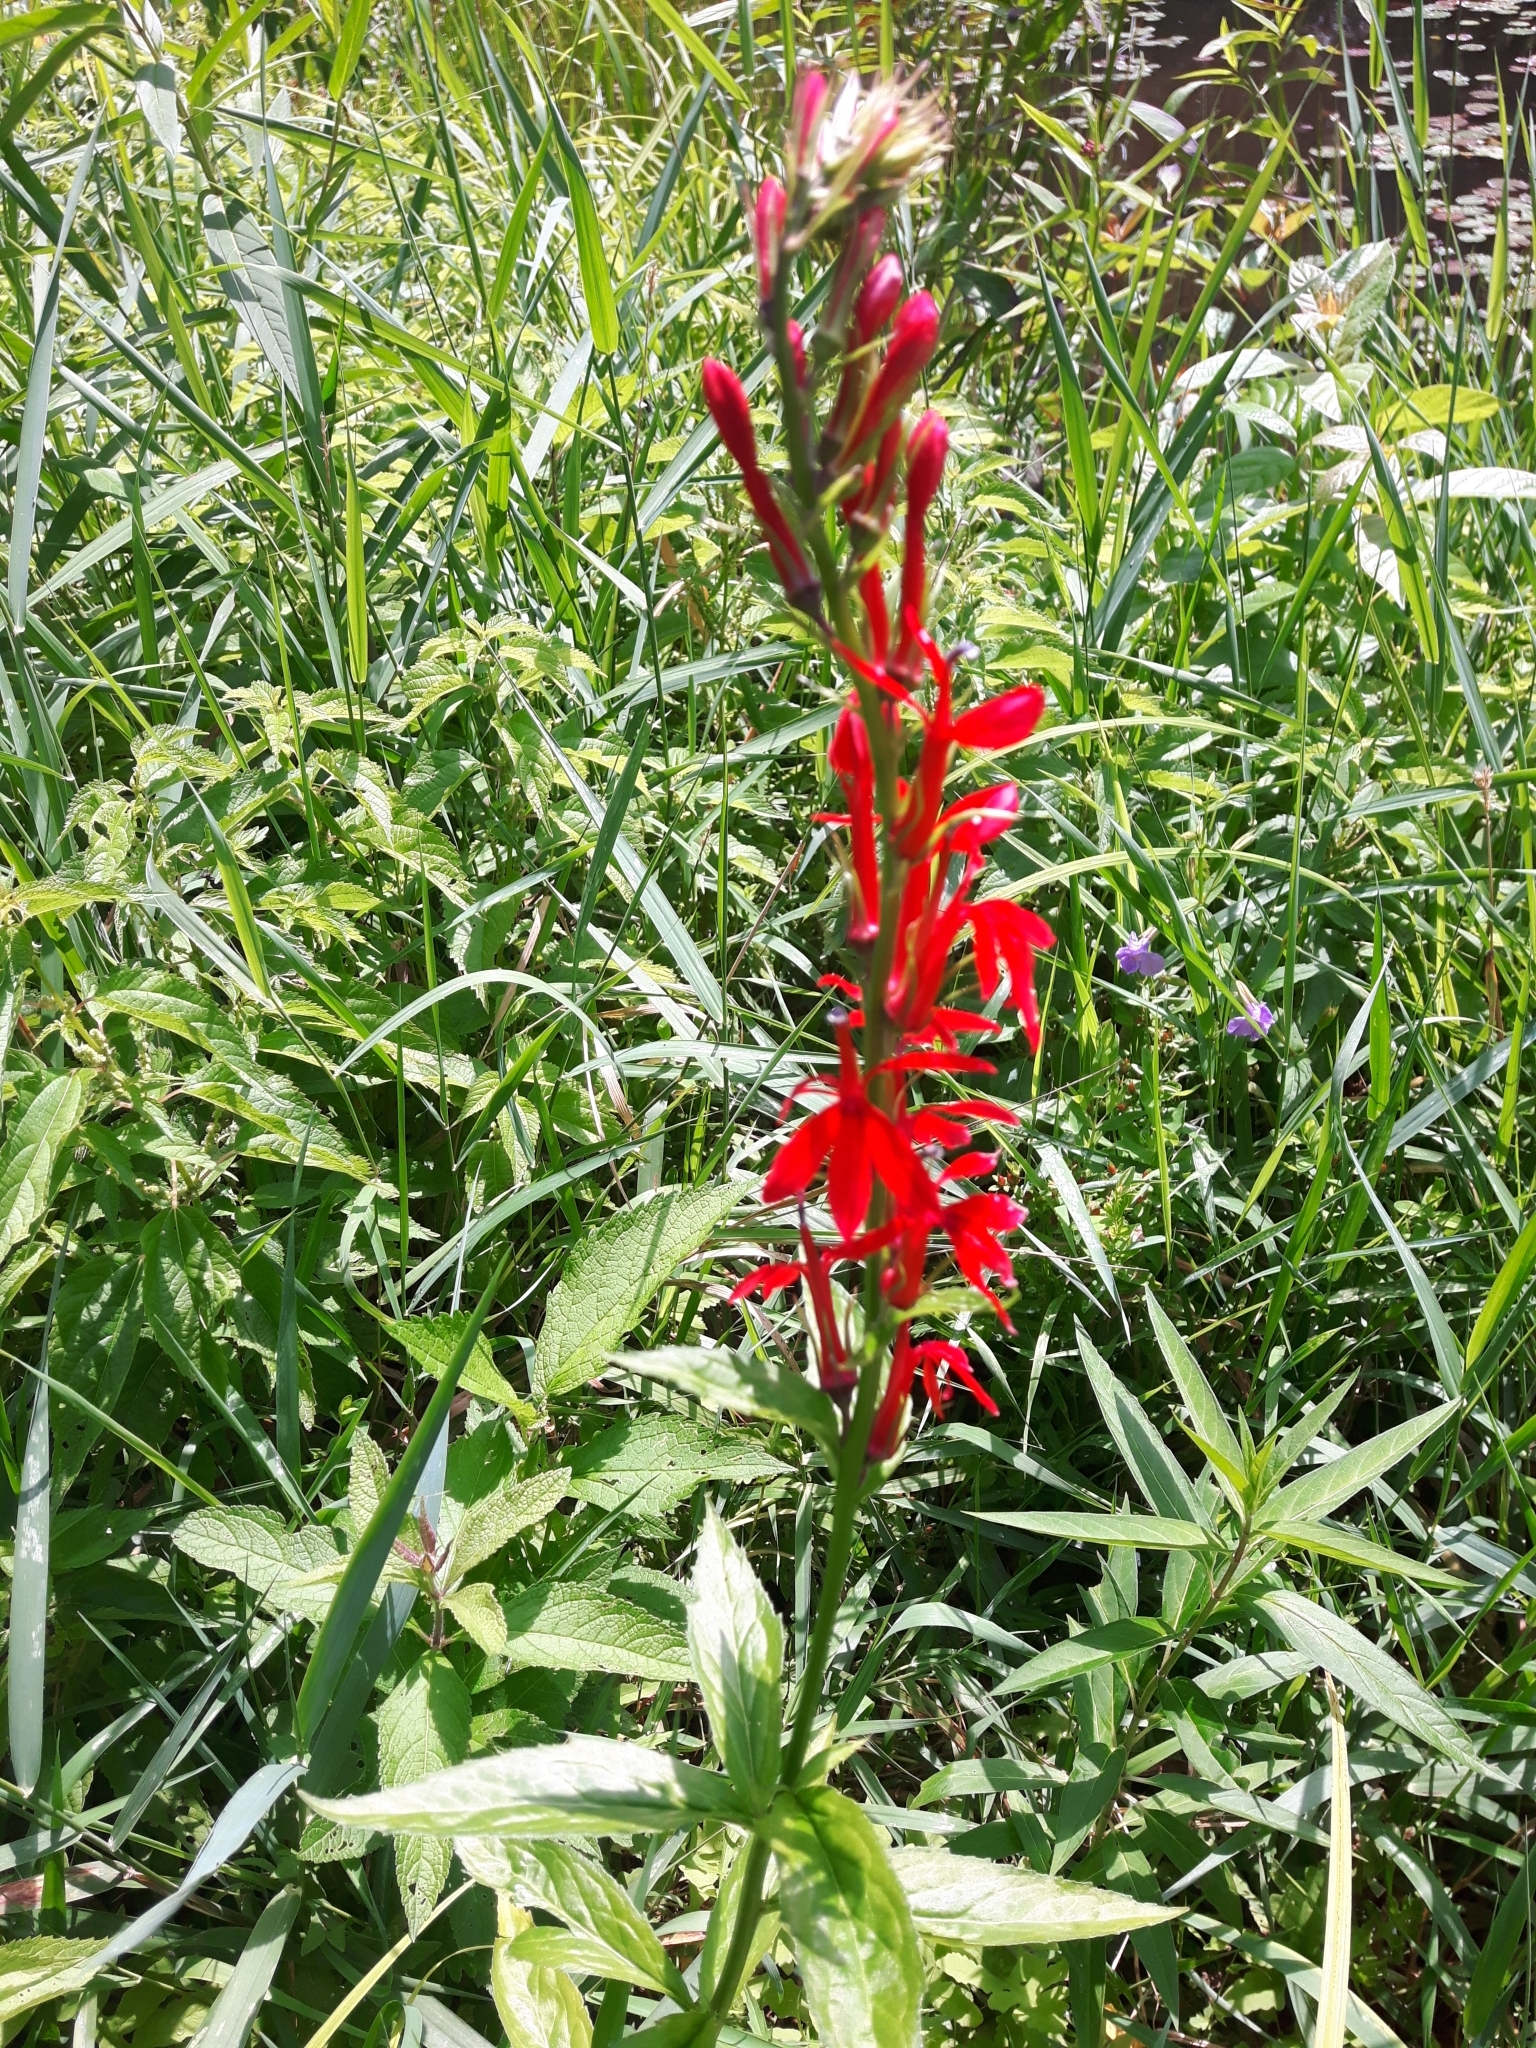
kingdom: Plantae
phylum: Tracheophyta
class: Magnoliopsida
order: Asterales
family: Campanulaceae
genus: Lobelia
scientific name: Lobelia cardinalis
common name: Cardinal flower
